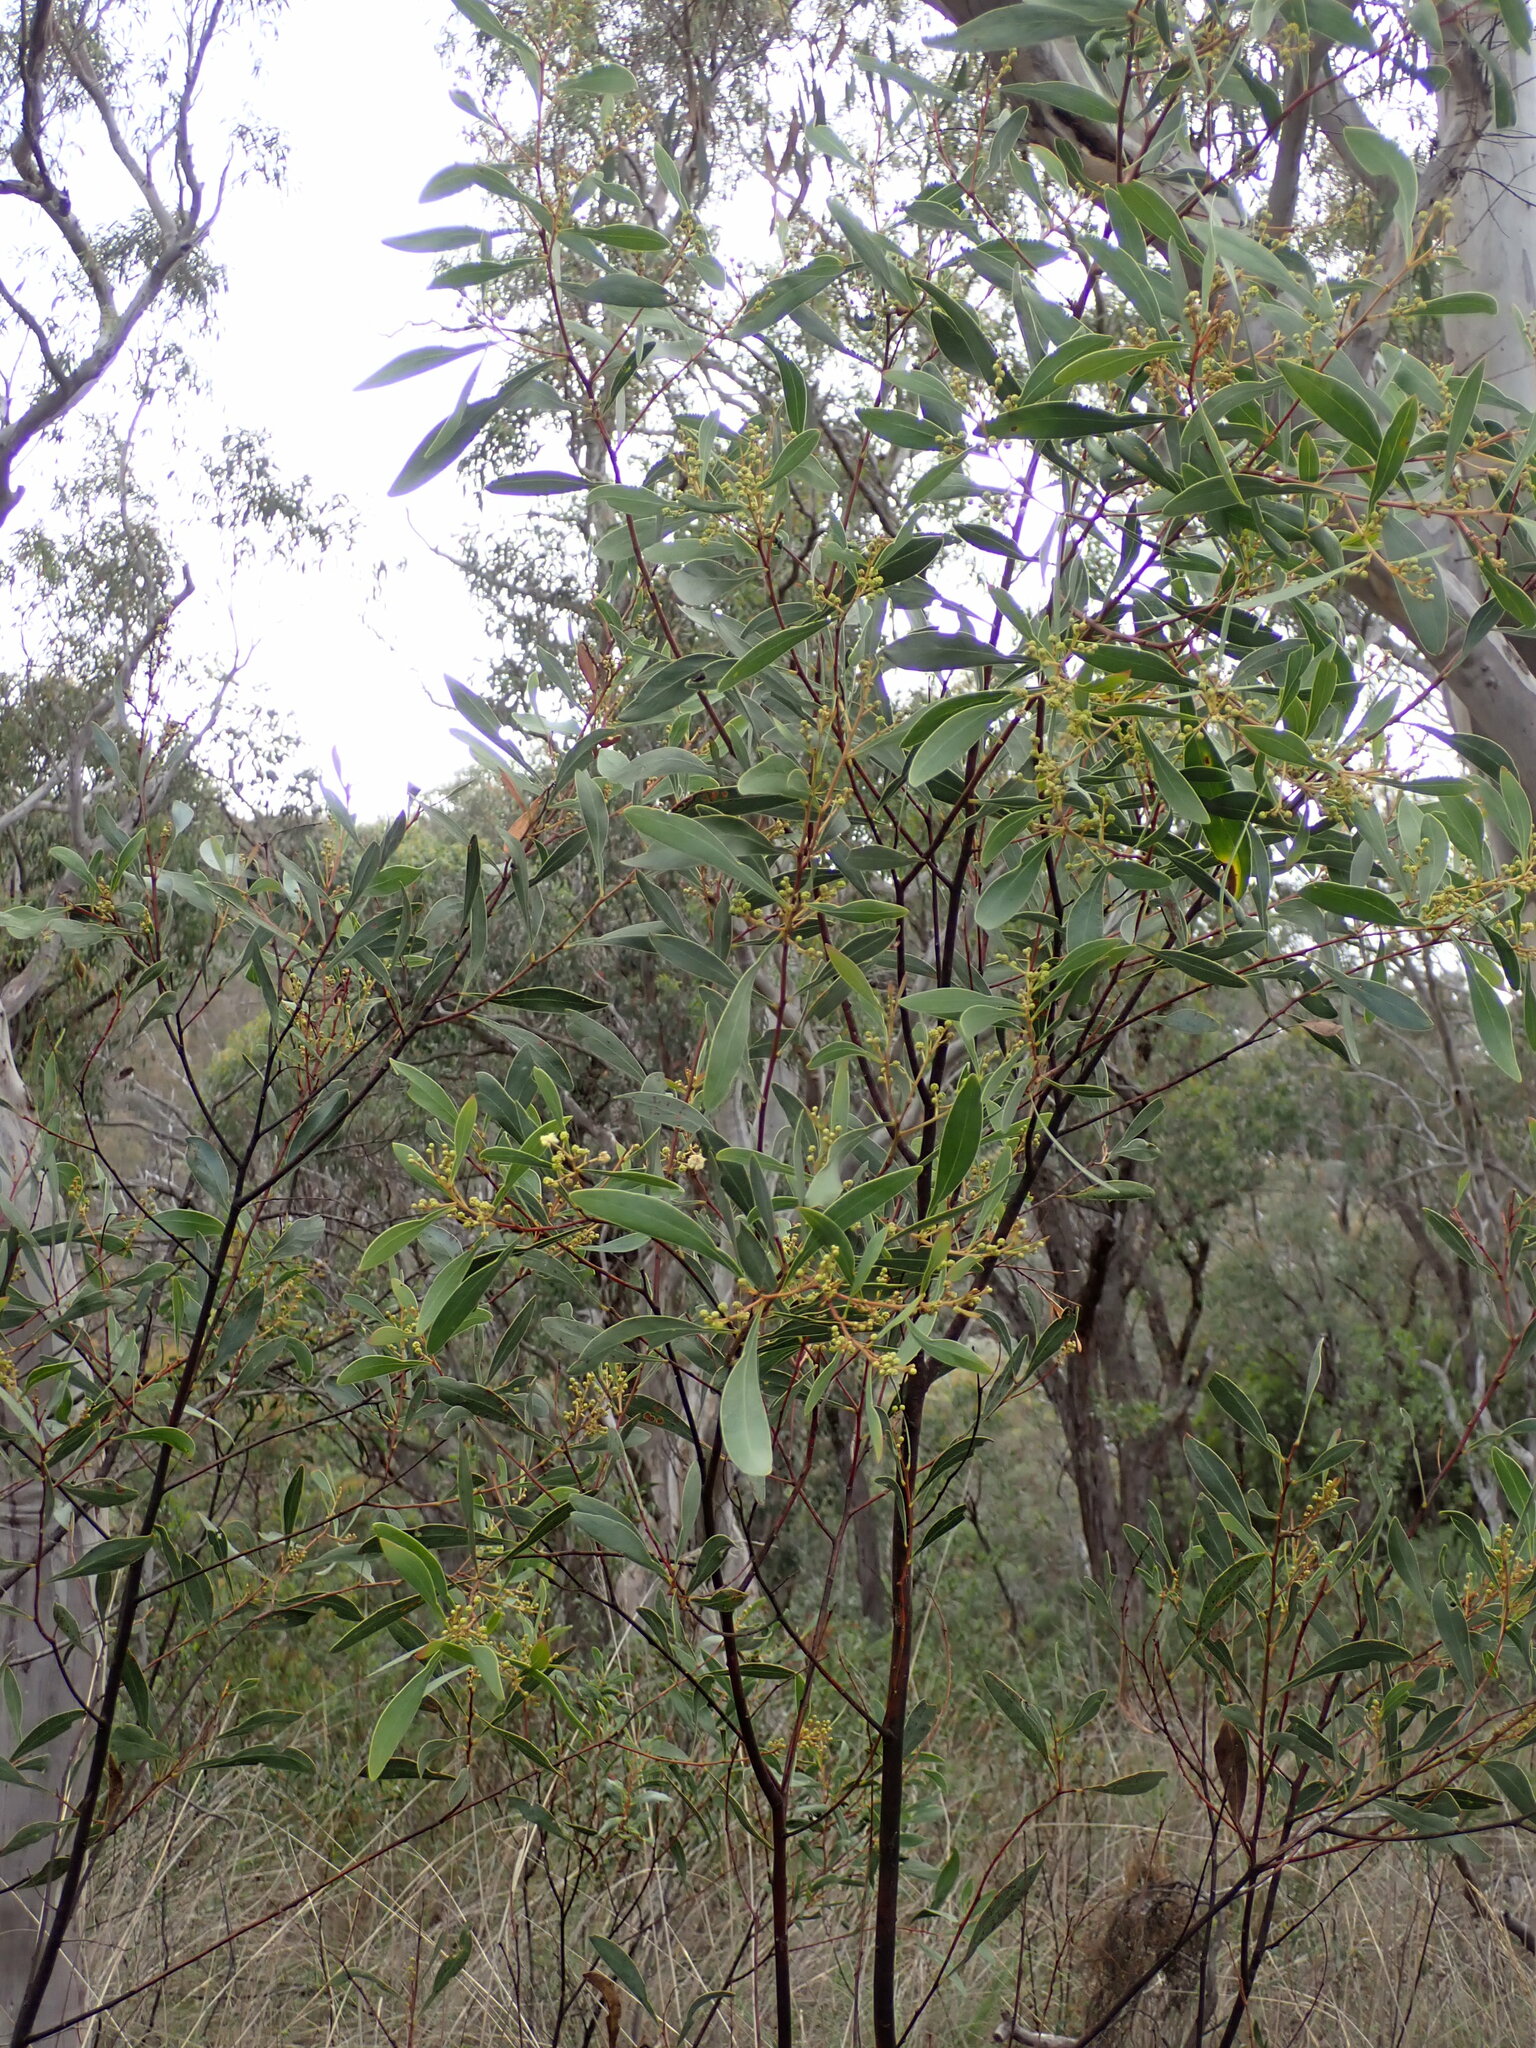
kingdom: Plantae
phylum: Tracheophyta
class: Magnoliopsida
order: Fabales
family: Fabaceae
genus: Acacia
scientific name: Acacia penninervis
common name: Hickory wattle
